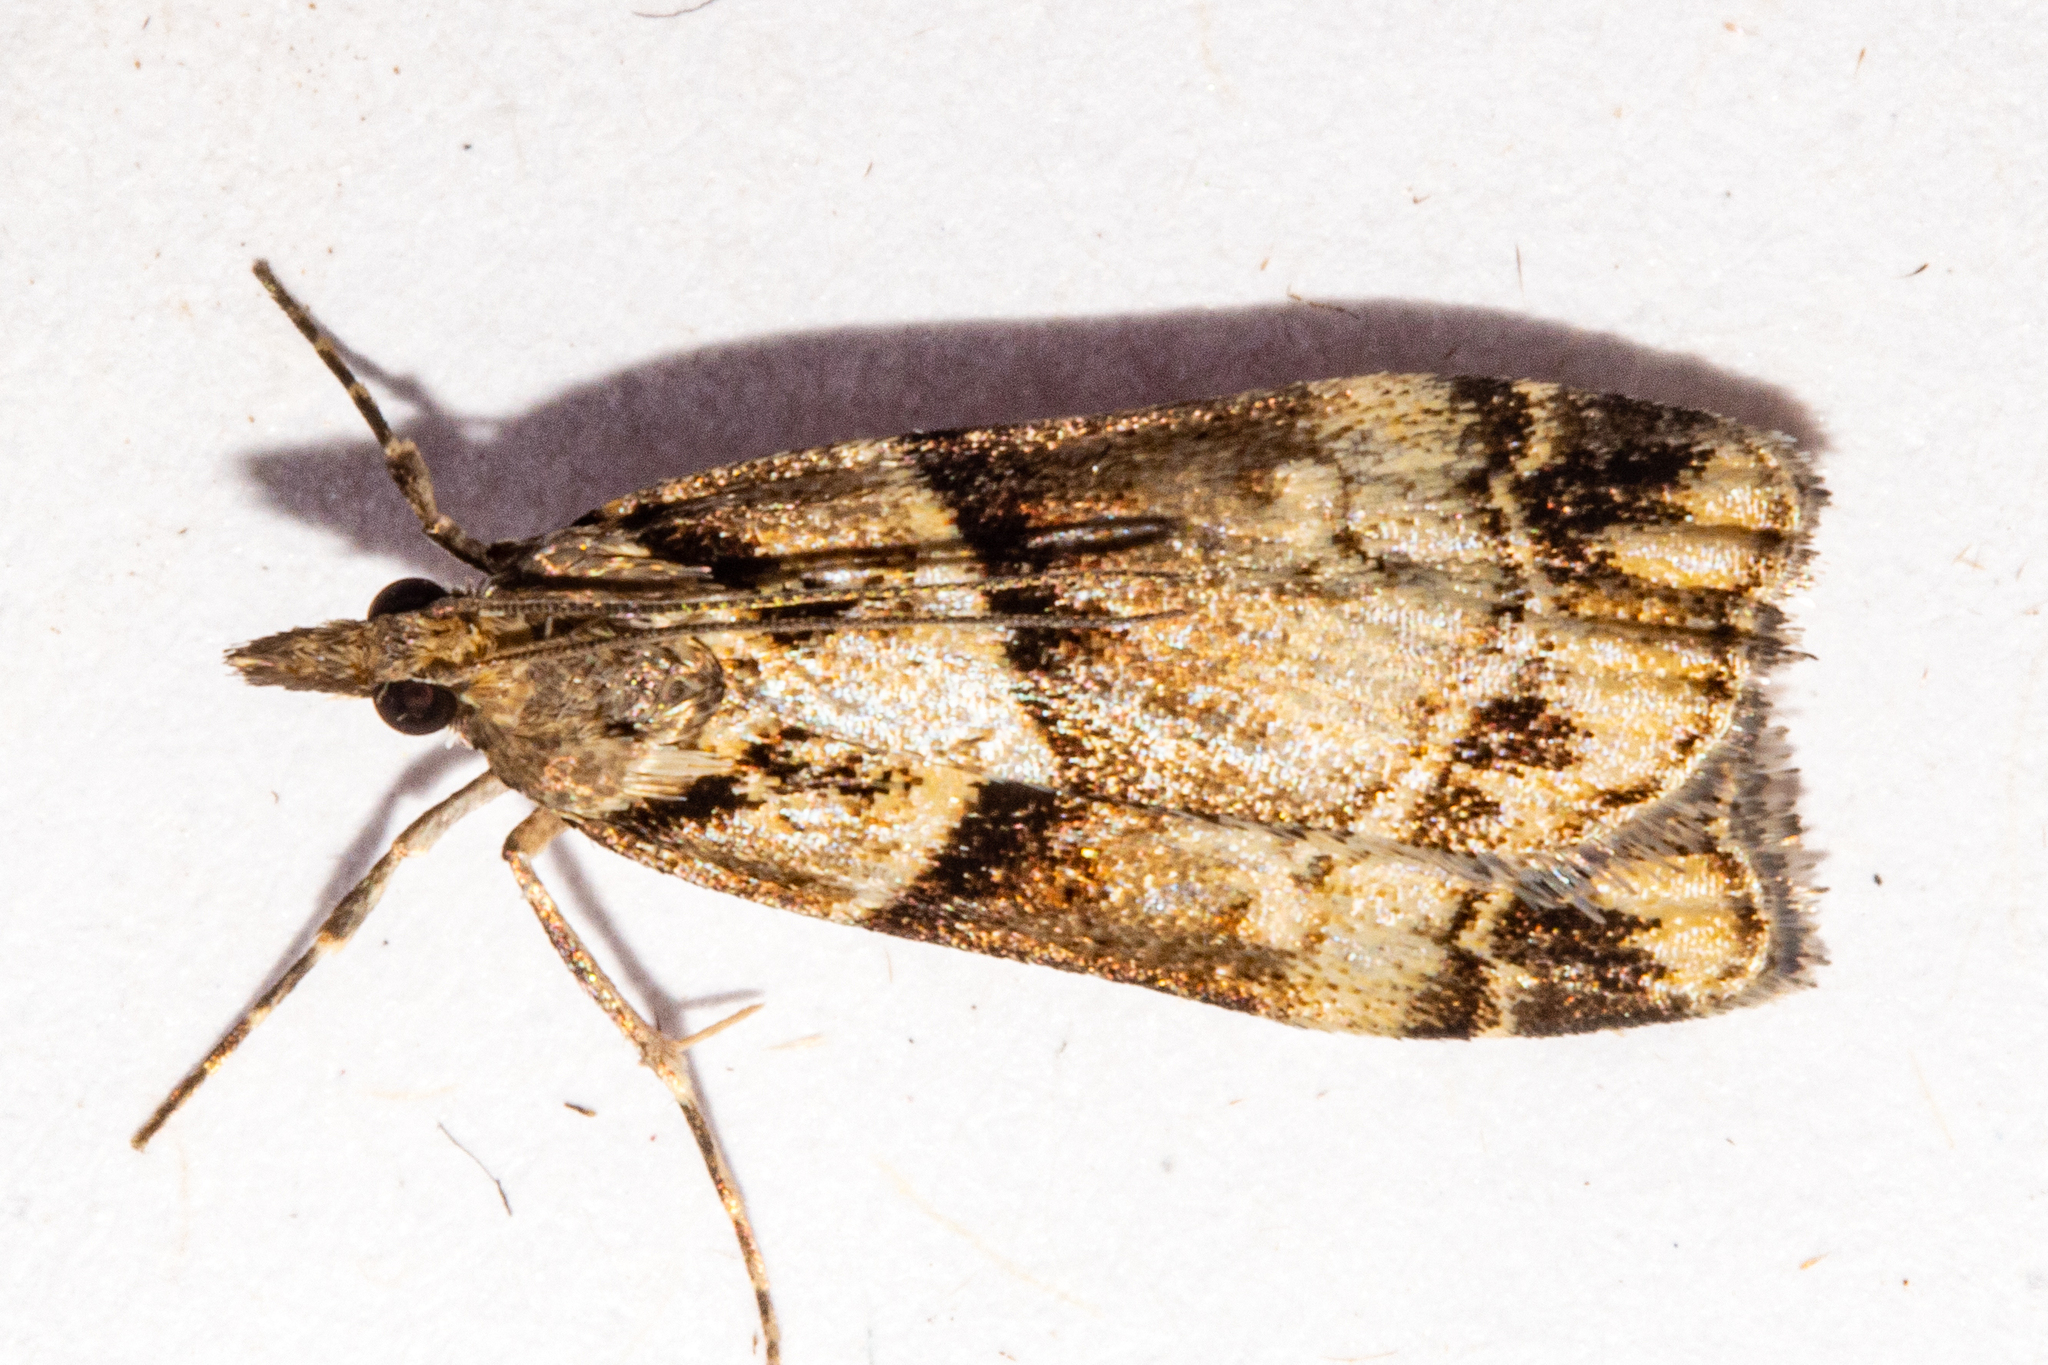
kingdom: Animalia
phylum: Arthropoda
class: Insecta
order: Lepidoptera
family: Crambidae
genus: Eudonia
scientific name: Eudonia periphanes
